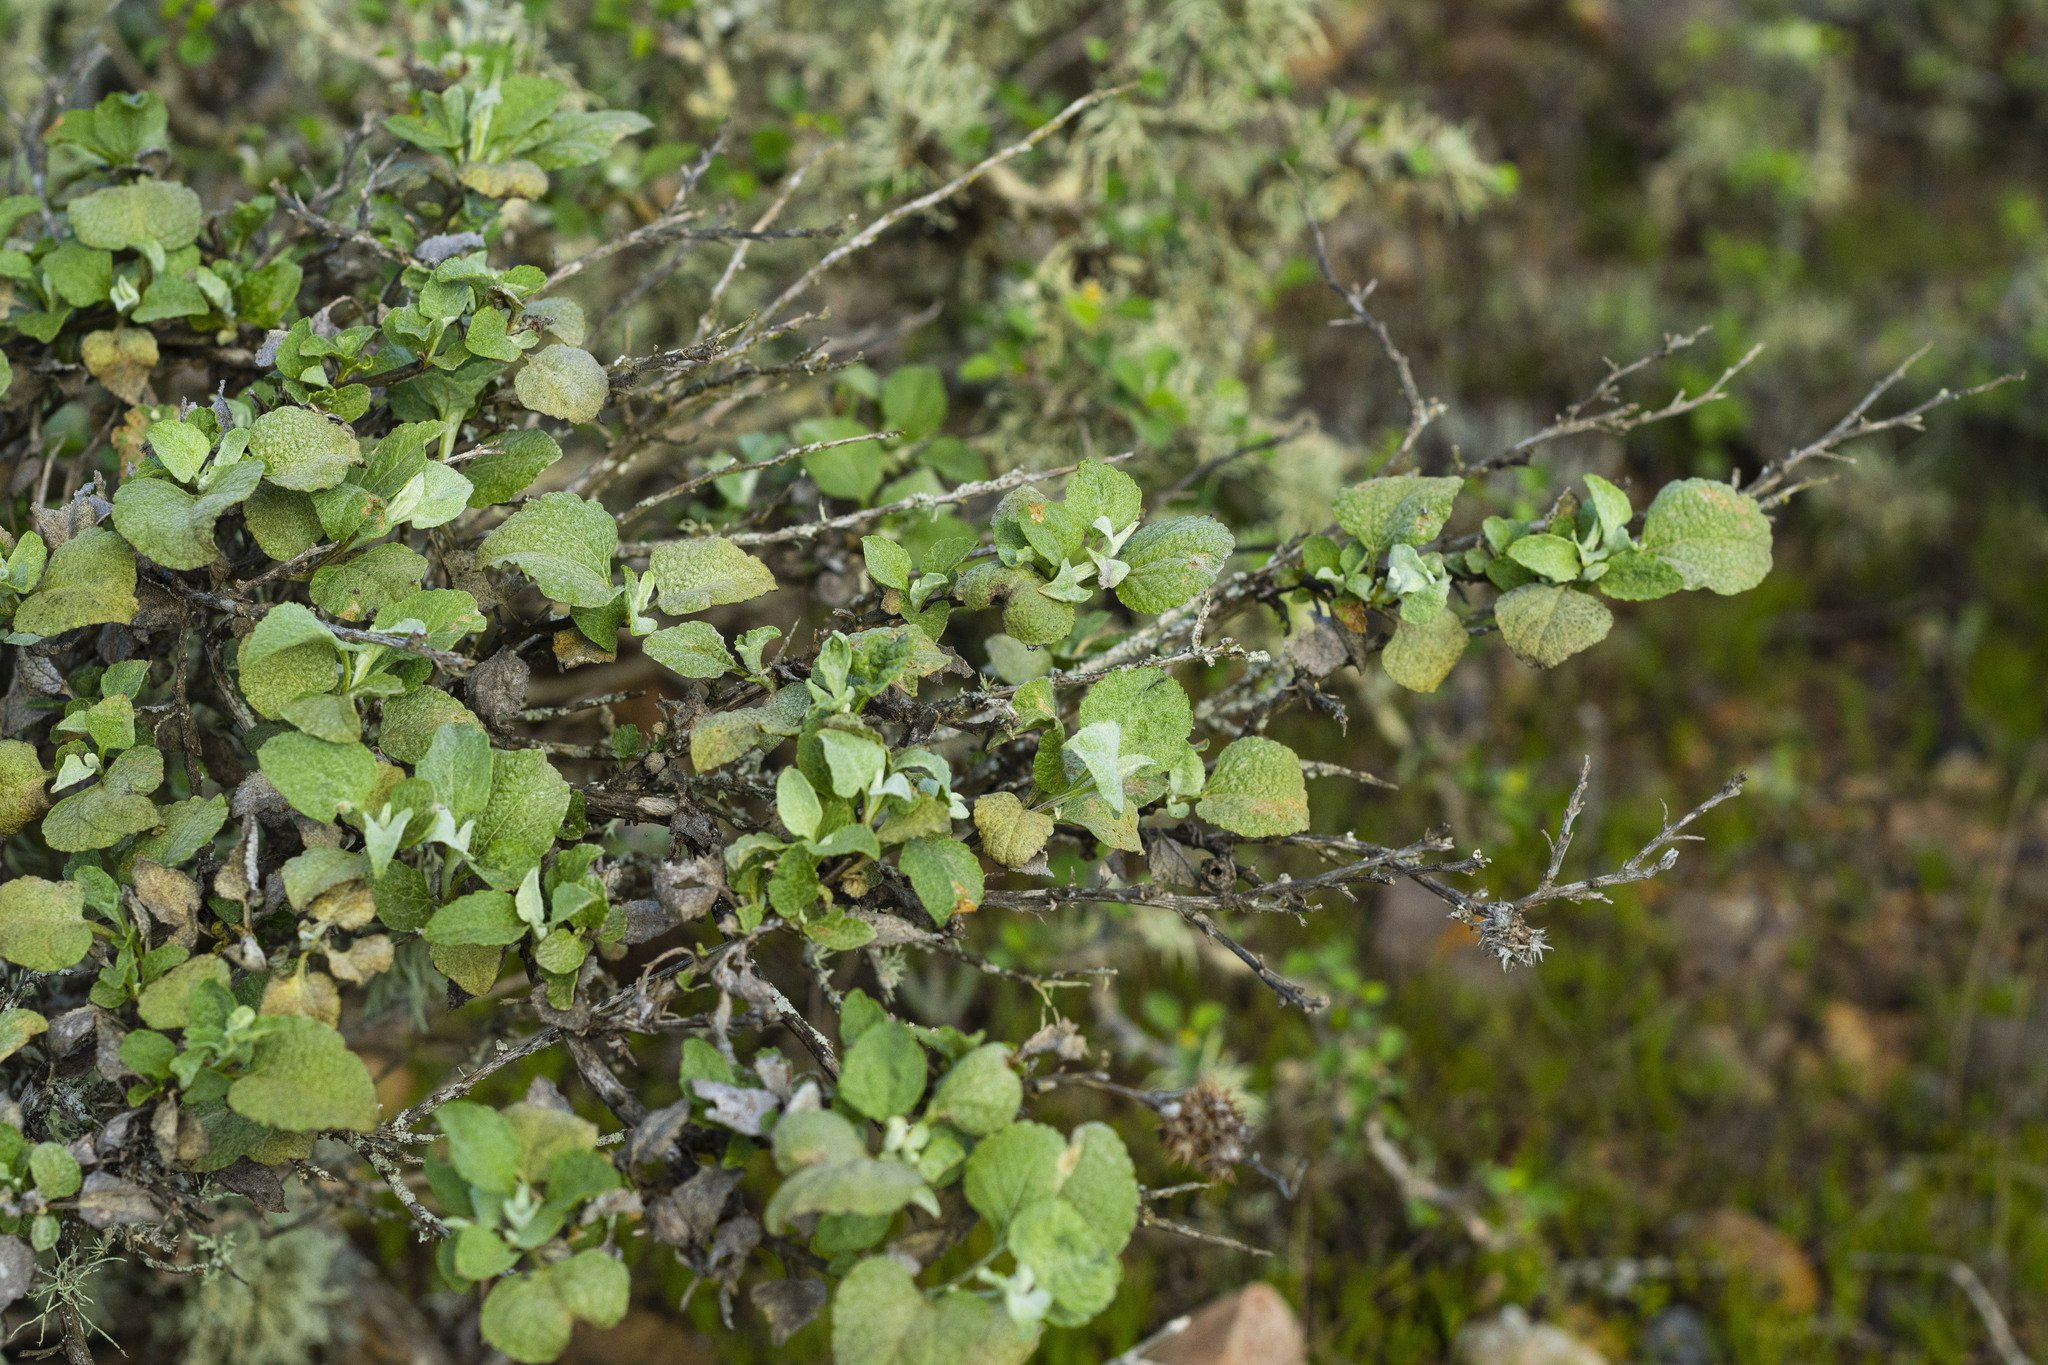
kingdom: Plantae
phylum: Tracheophyta
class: Magnoliopsida
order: Asterales
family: Asteraceae
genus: Ambrosia
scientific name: Ambrosia chenopodiifolia
